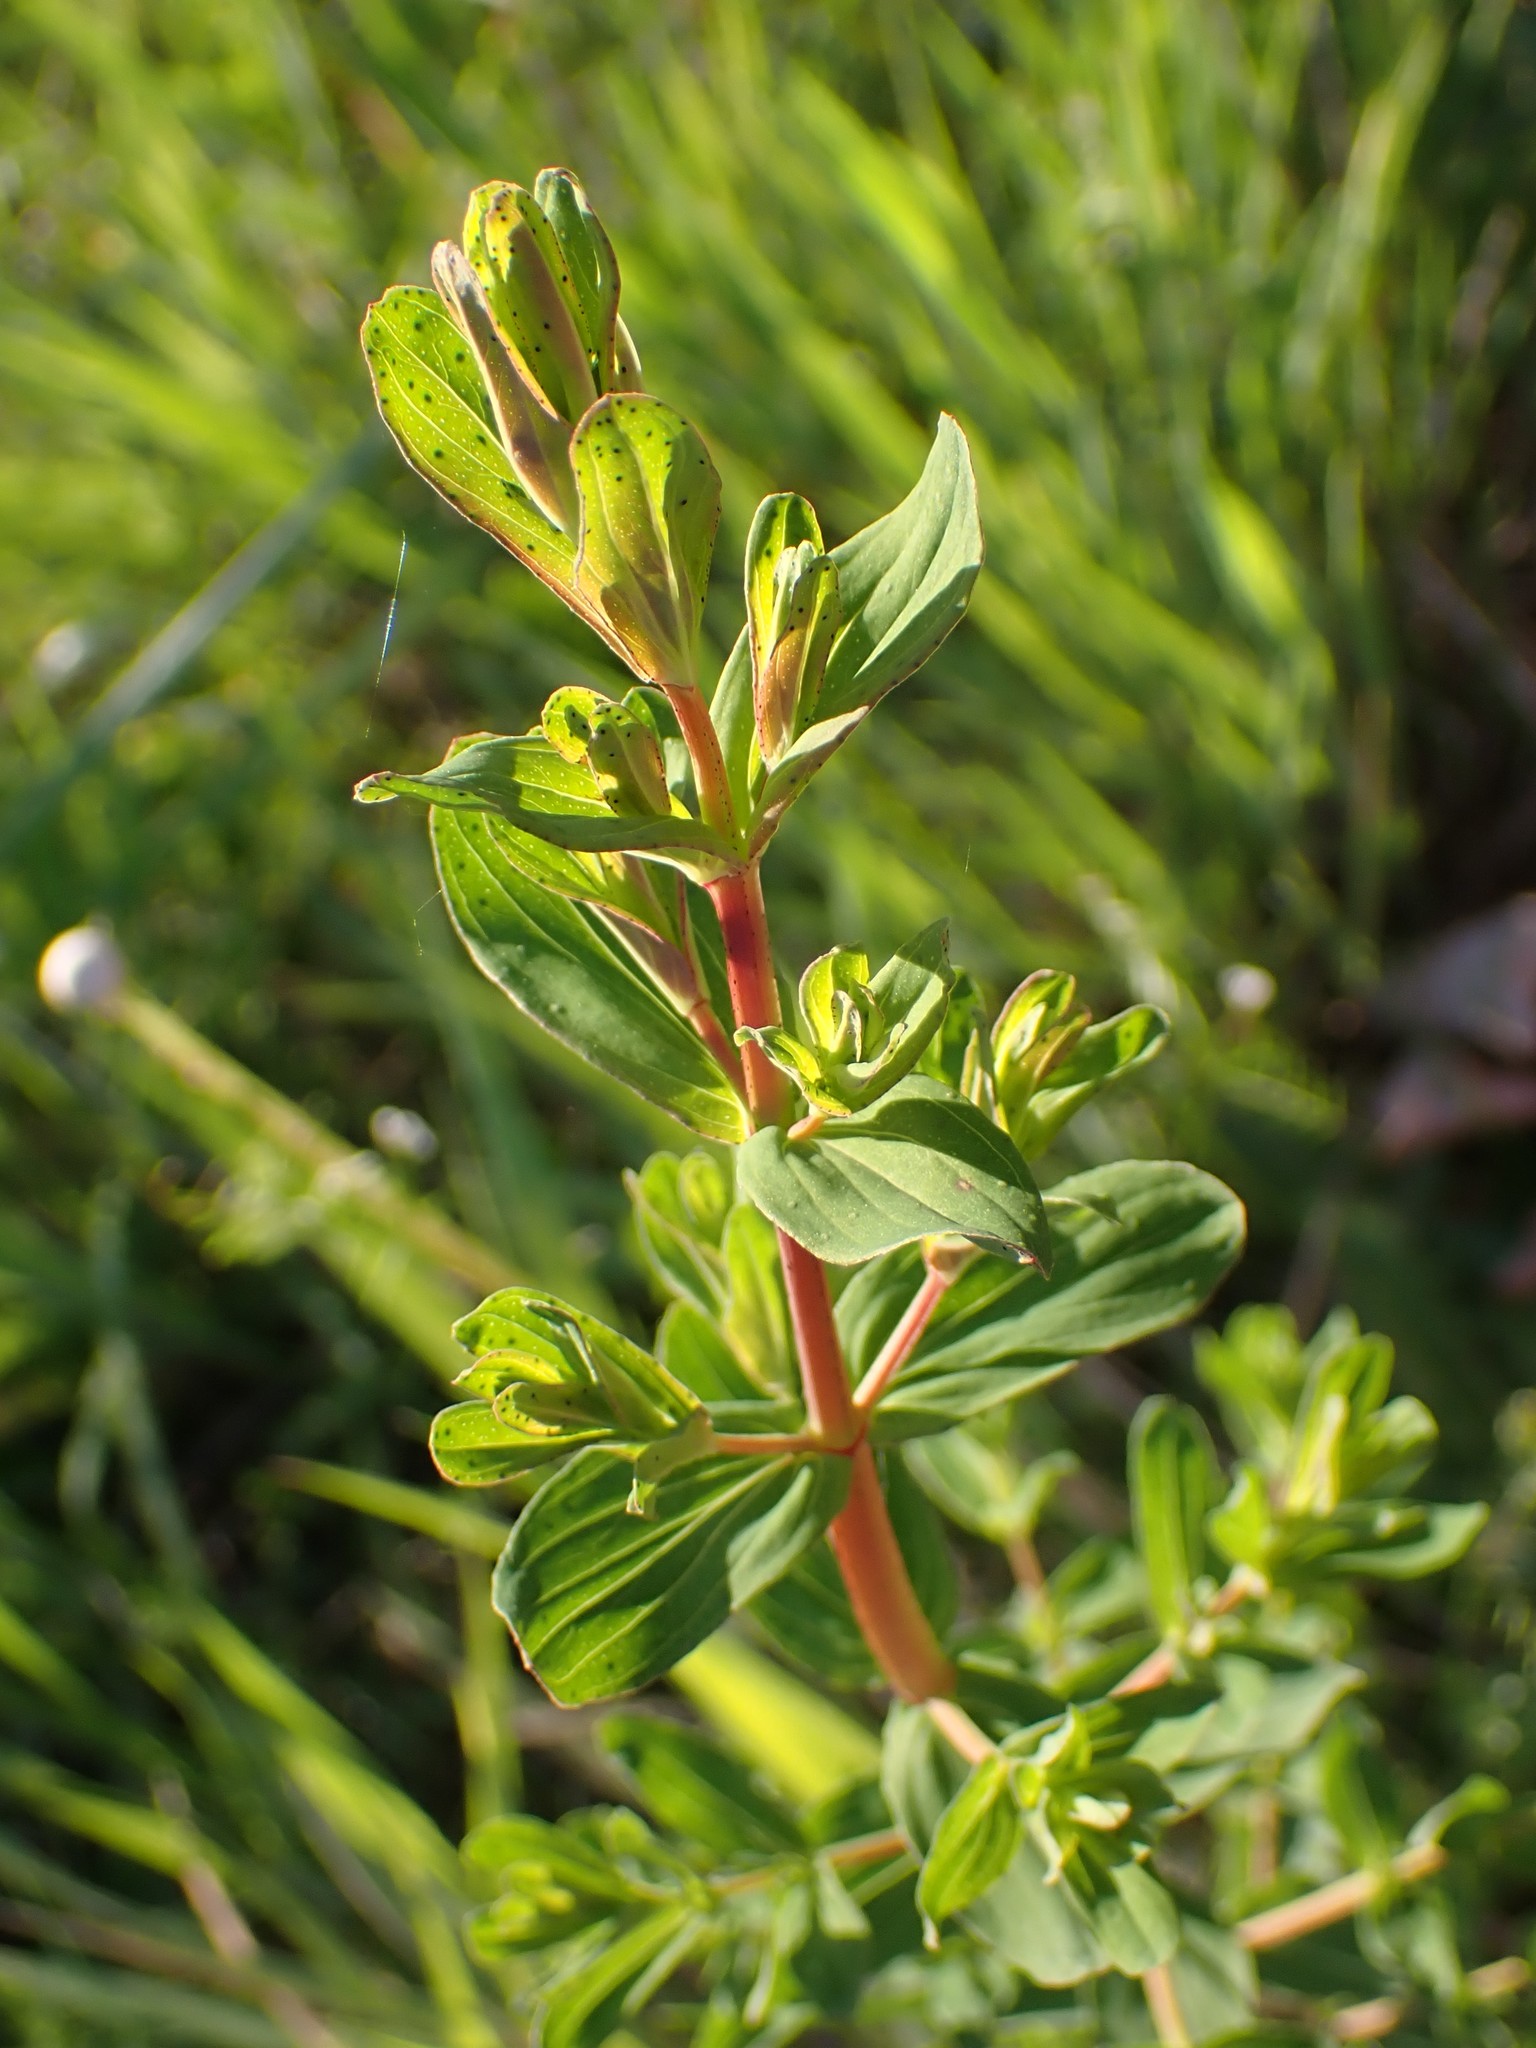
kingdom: Plantae
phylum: Tracheophyta
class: Magnoliopsida
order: Malpighiales
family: Hypericaceae
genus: Hypericum
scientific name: Hypericum perforatum
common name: Common st. johnswort
